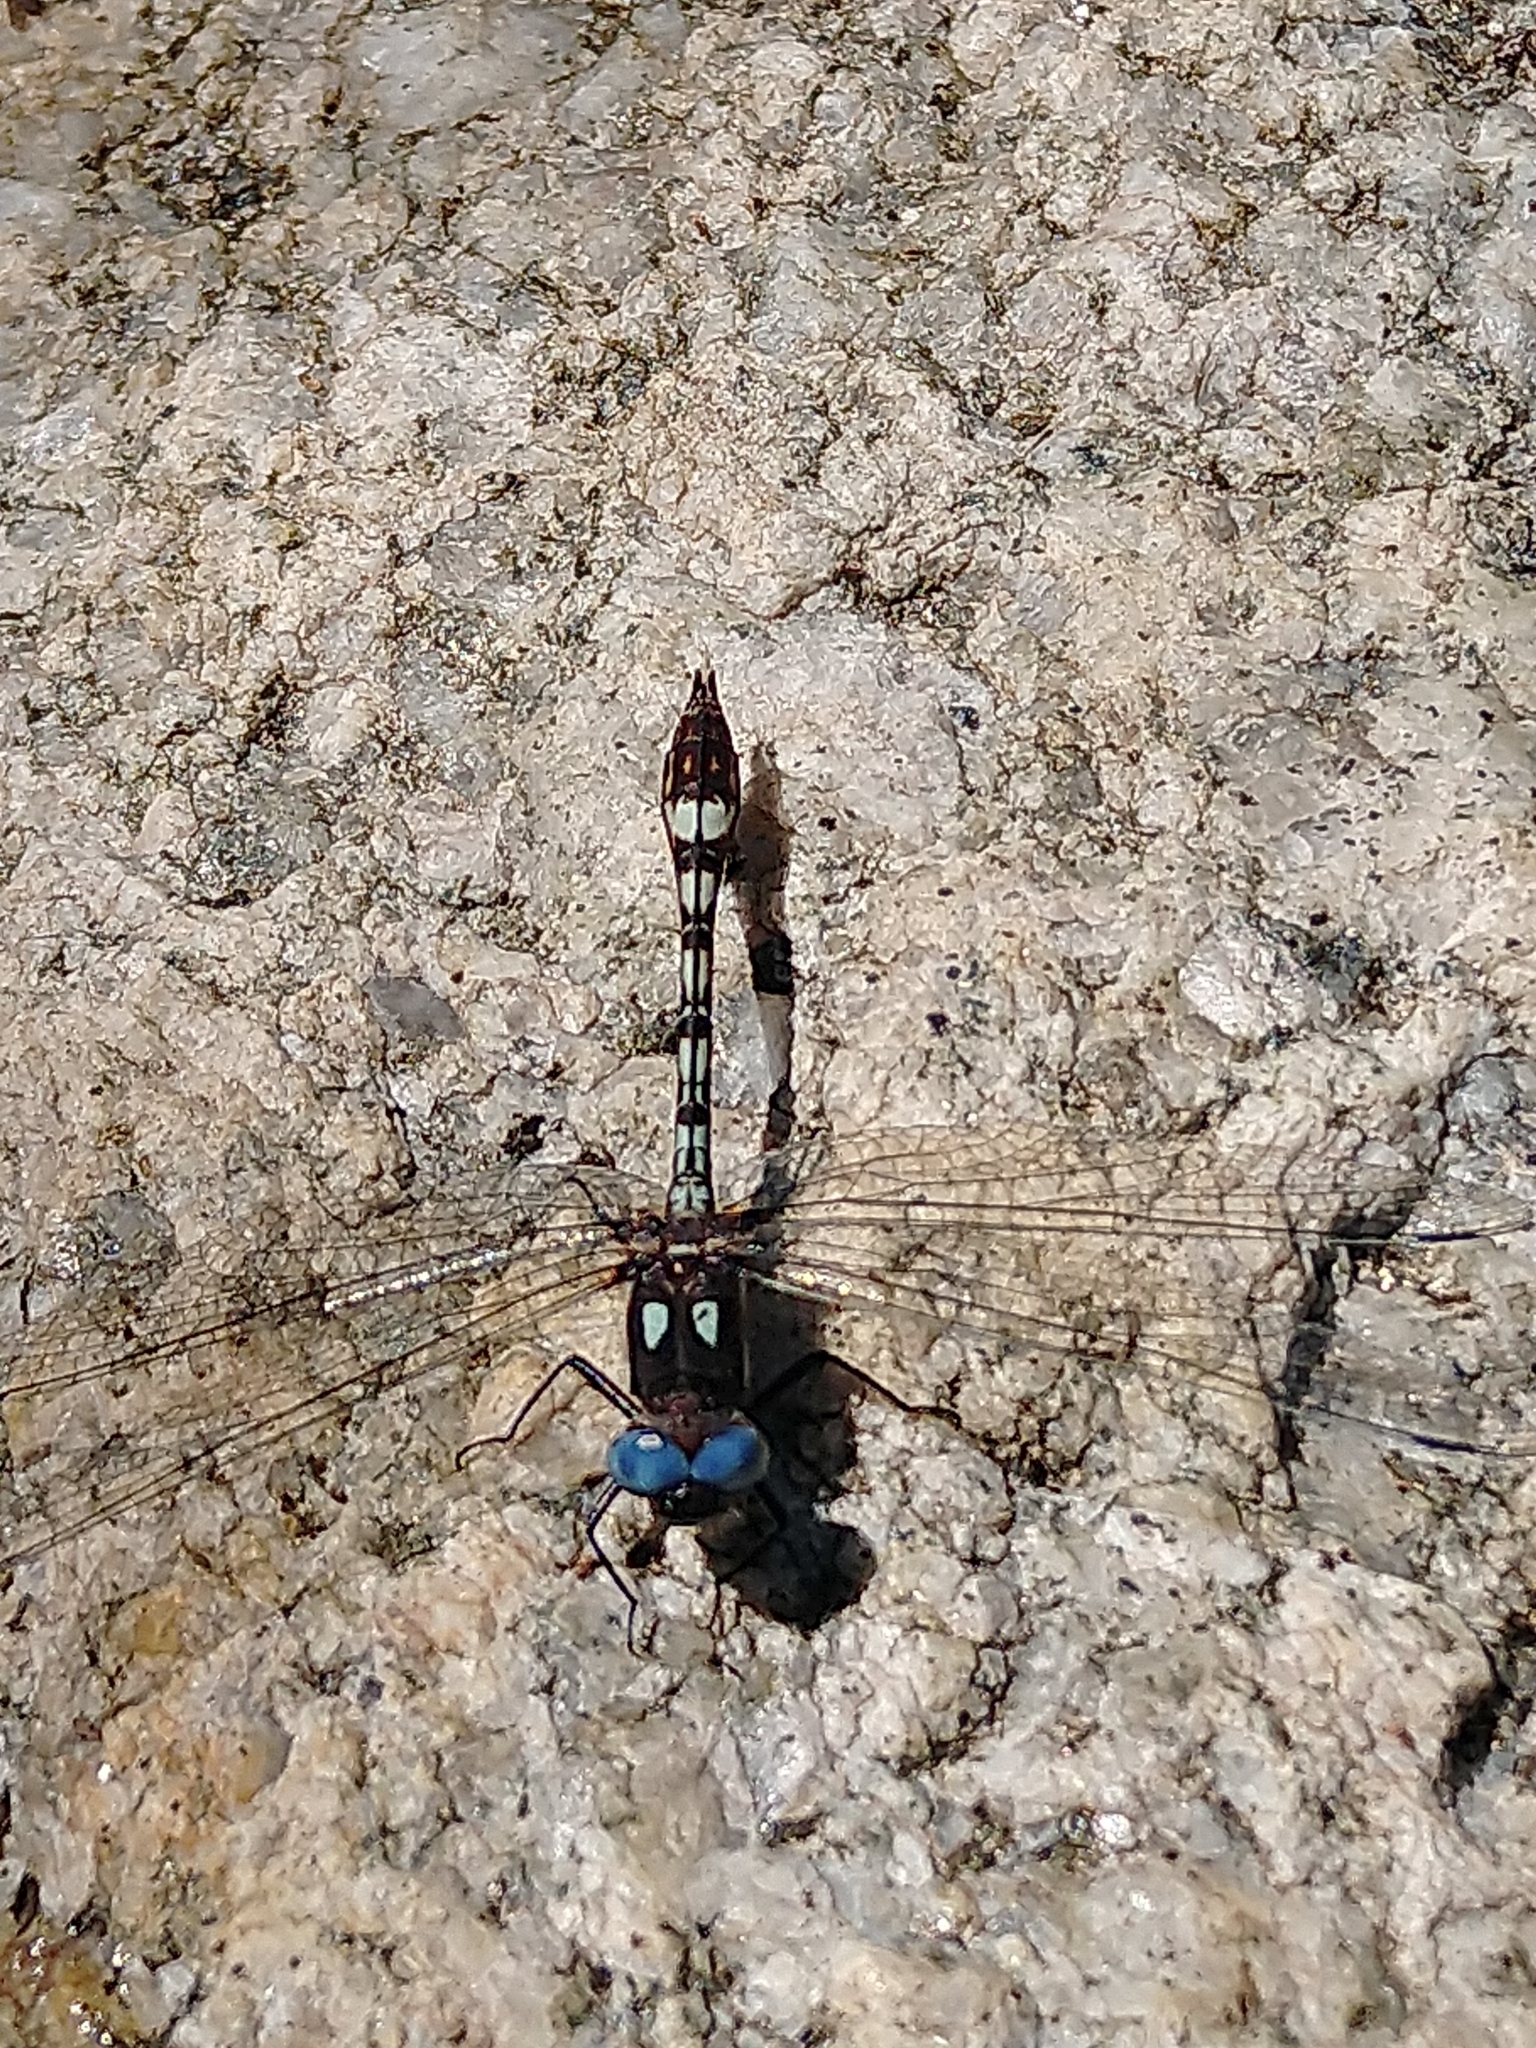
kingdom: Animalia
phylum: Arthropoda
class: Insecta
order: Odonata
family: Libellulidae
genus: Macrothemis
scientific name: Macrothemis imitans
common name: Ivory-striped sylph
